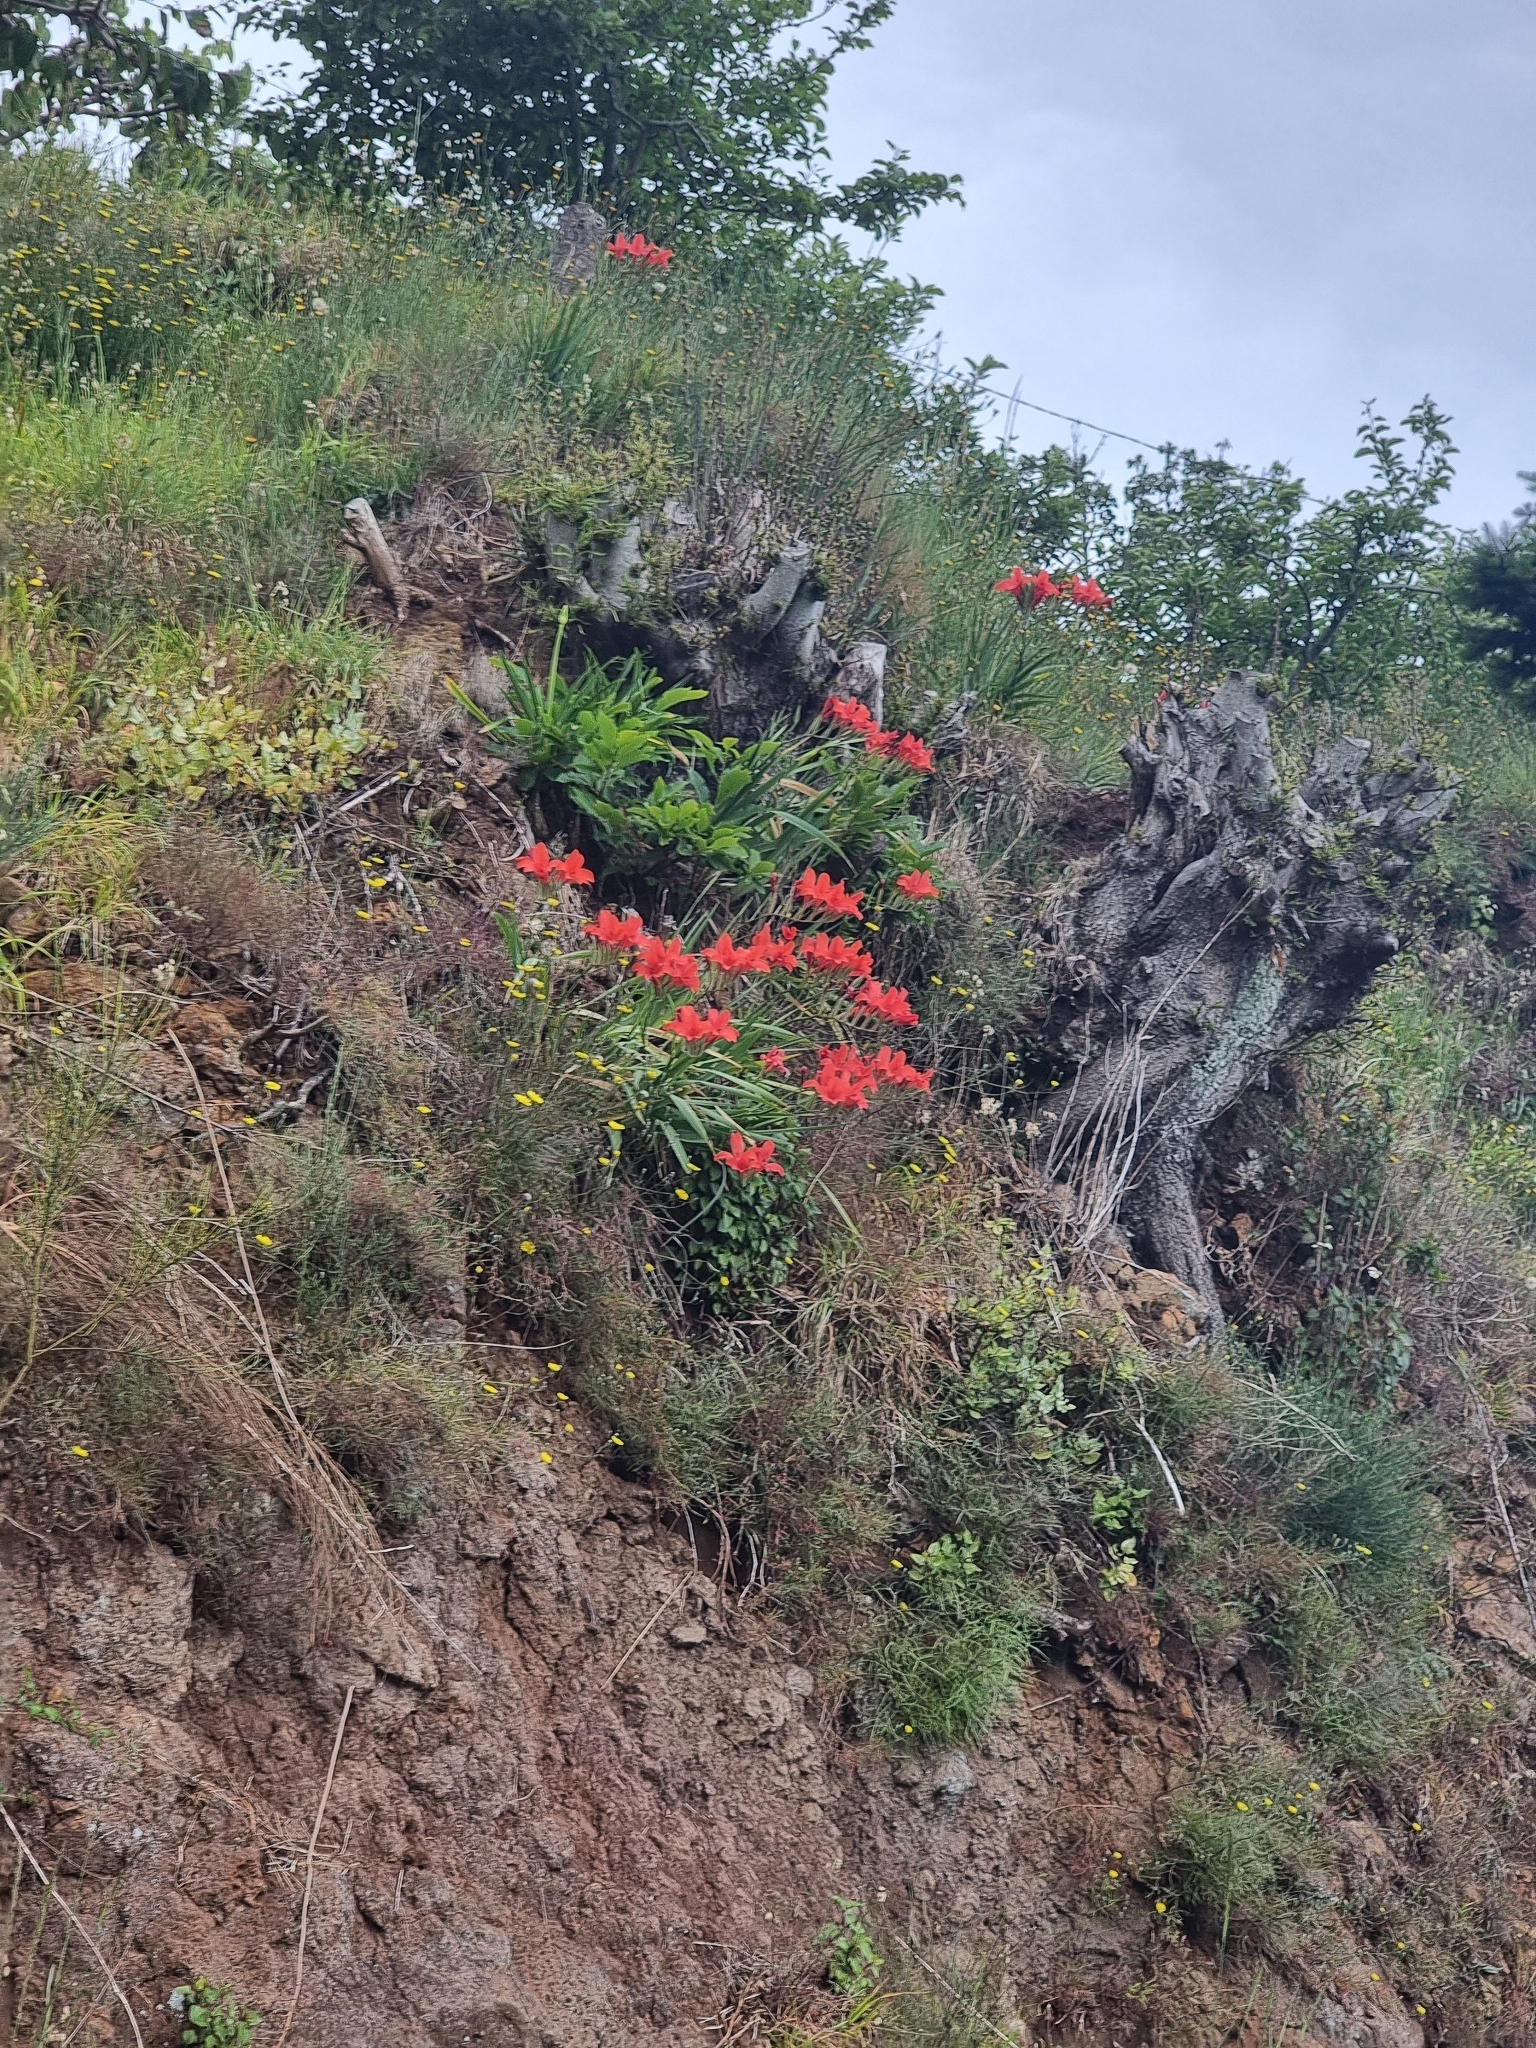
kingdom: Plantae
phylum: Tracheophyta
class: Liliopsida
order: Asparagales
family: Amaryllidaceae
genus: Cyrtanthus
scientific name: Cyrtanthus elatus
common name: Scarborough-lily
